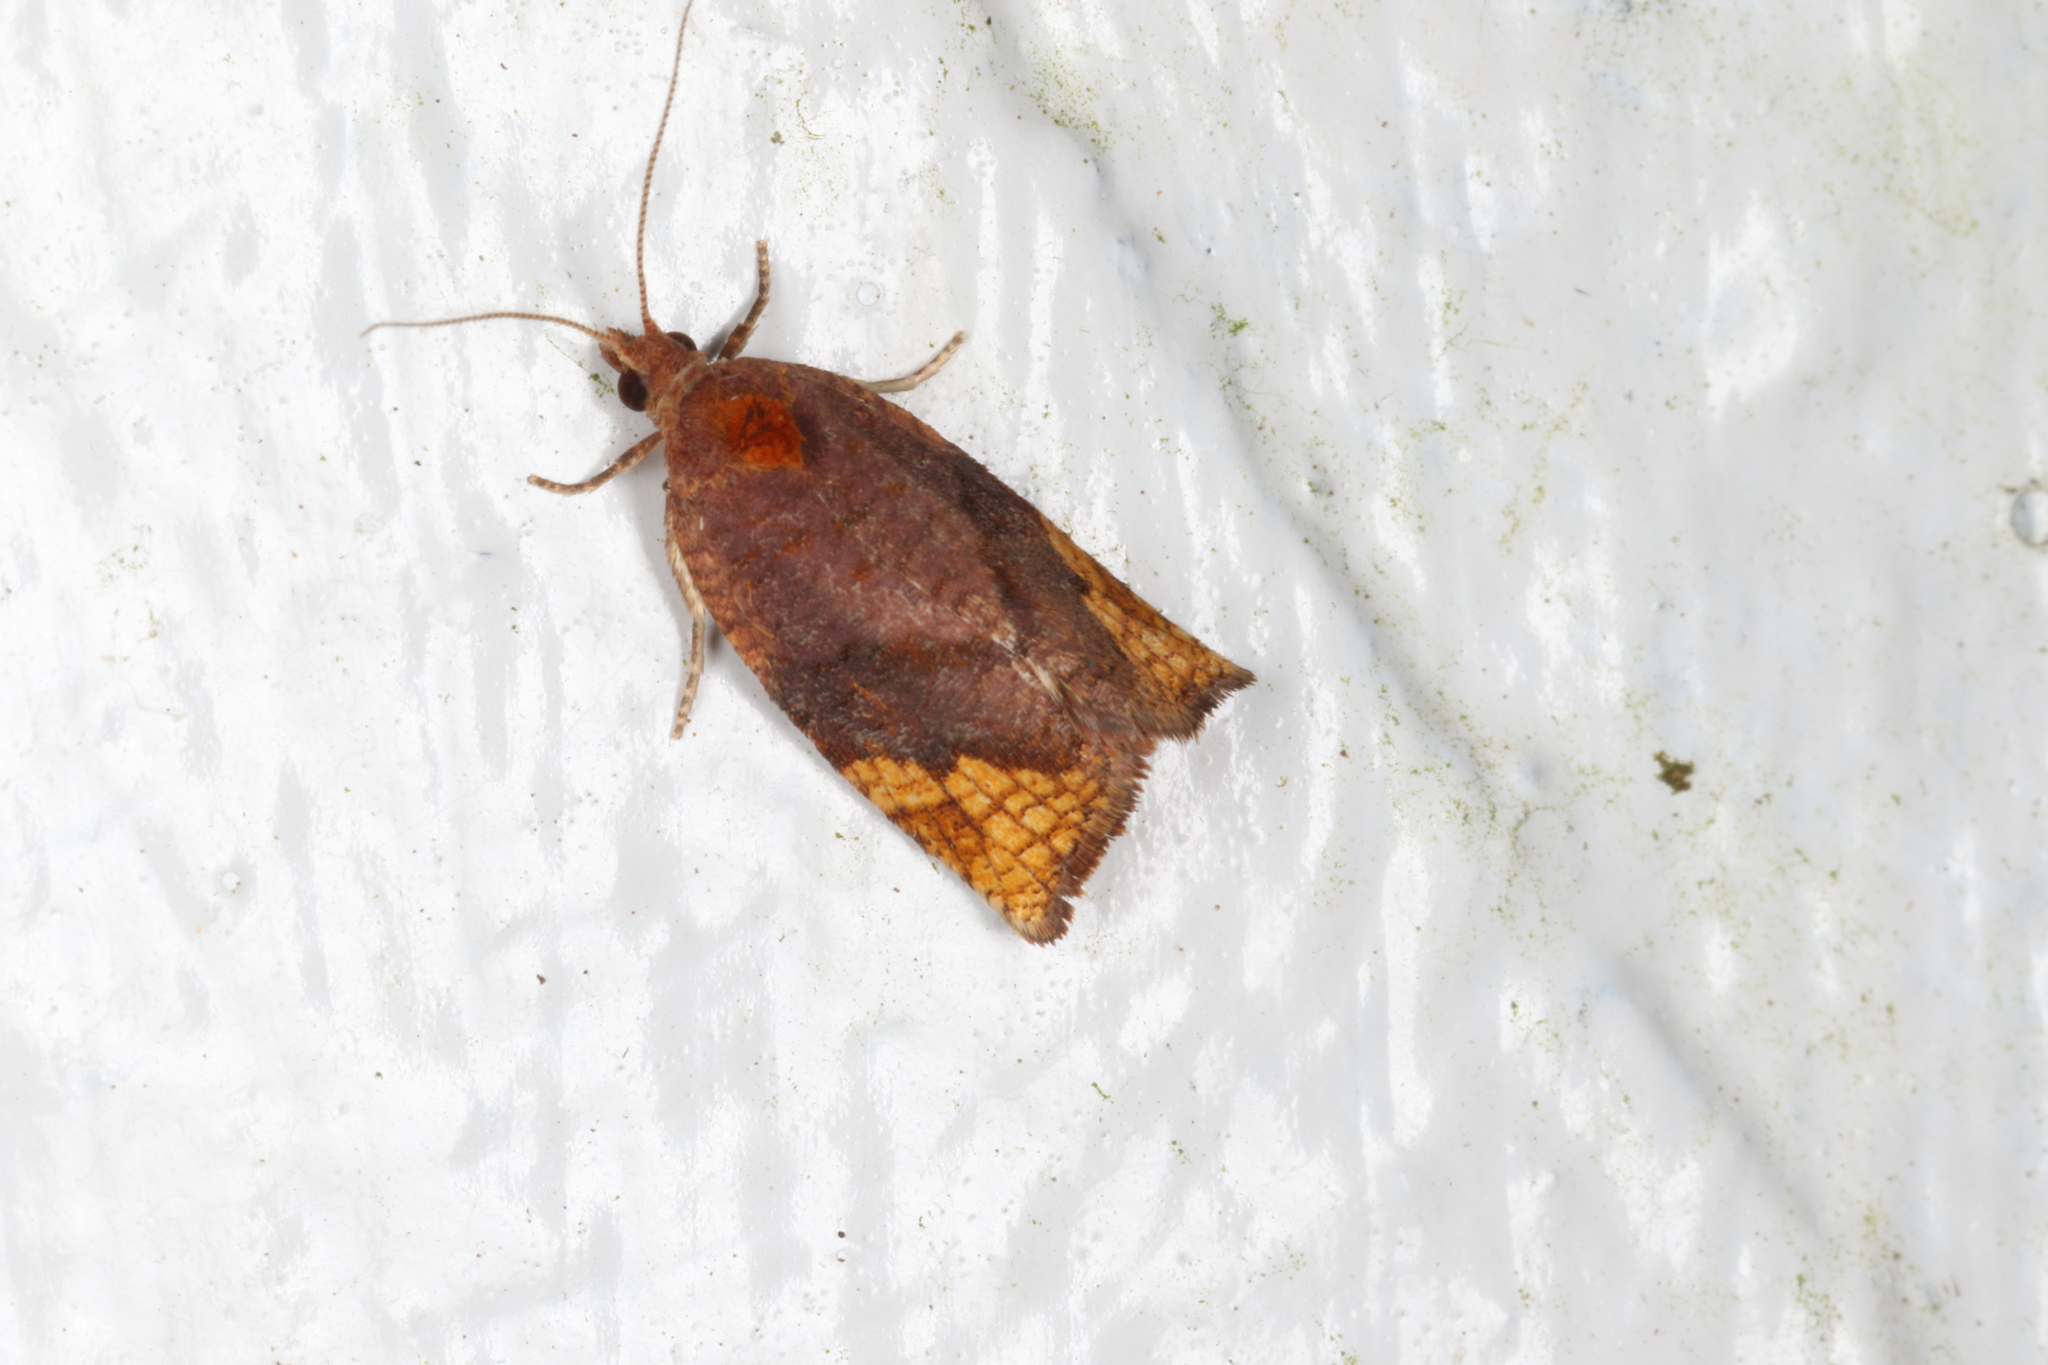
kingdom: Animalia
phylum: Arthropoda
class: Insecta
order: Lepidoptera
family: Tortricidae
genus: Pyrgotis
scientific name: Pyrgotis eudorana
